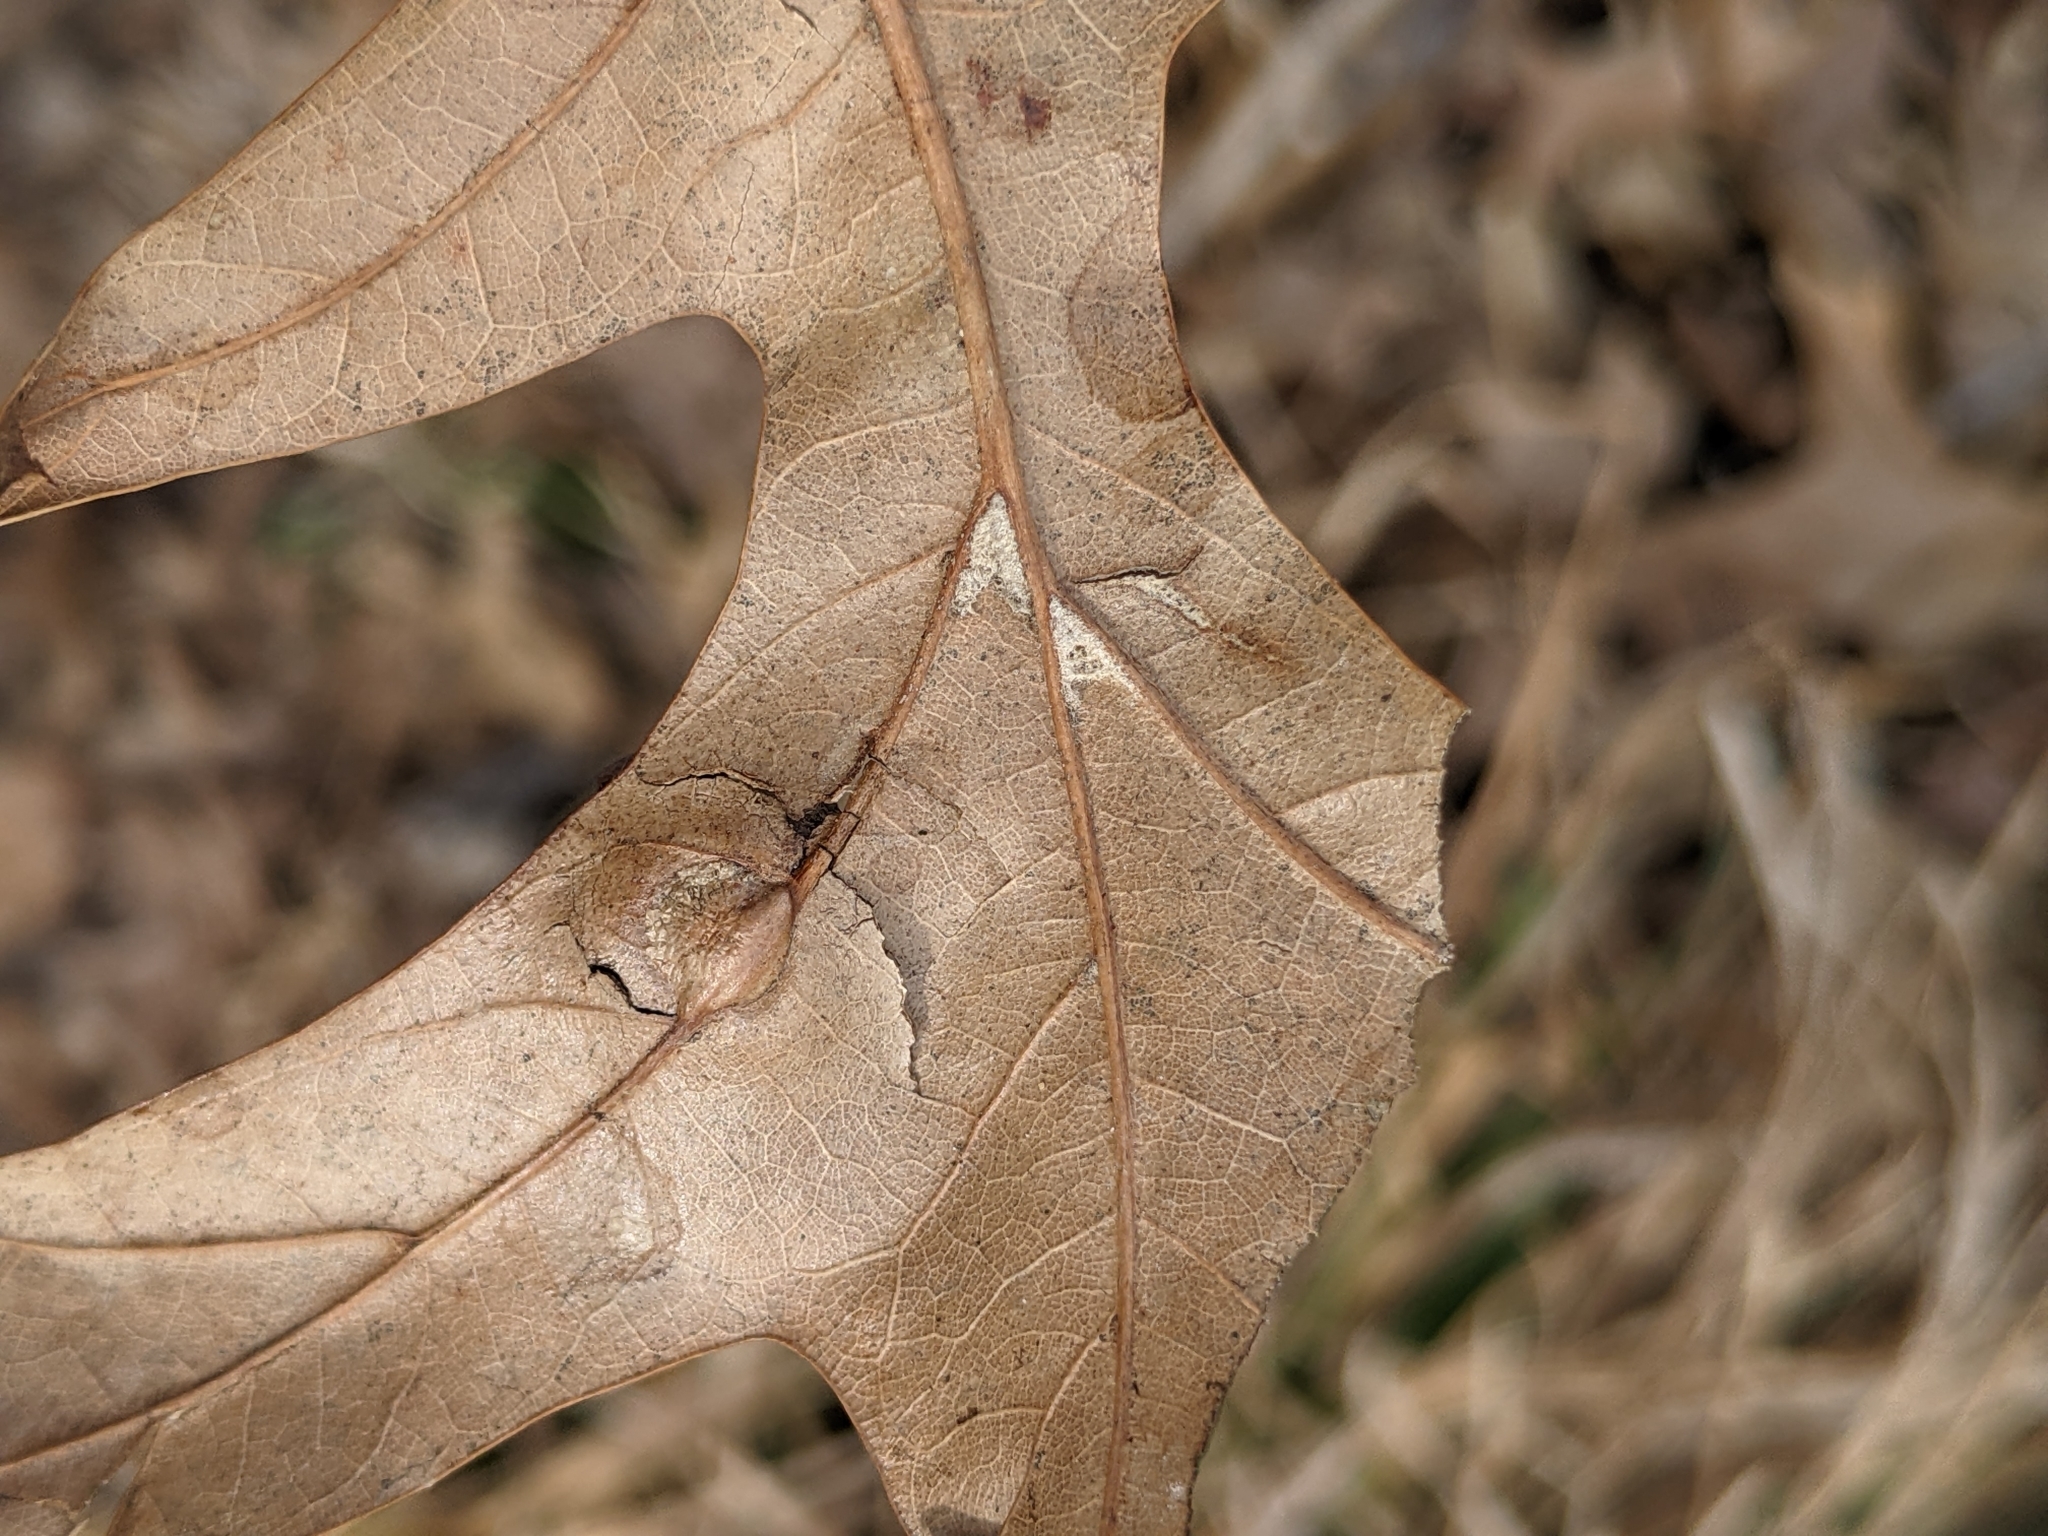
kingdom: Animalia
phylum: Arthropoda
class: Insecta
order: Diptera
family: Cecidomyiidae
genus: Polystepha
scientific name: Polystepha pilulae
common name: Oak leaf gall midge
